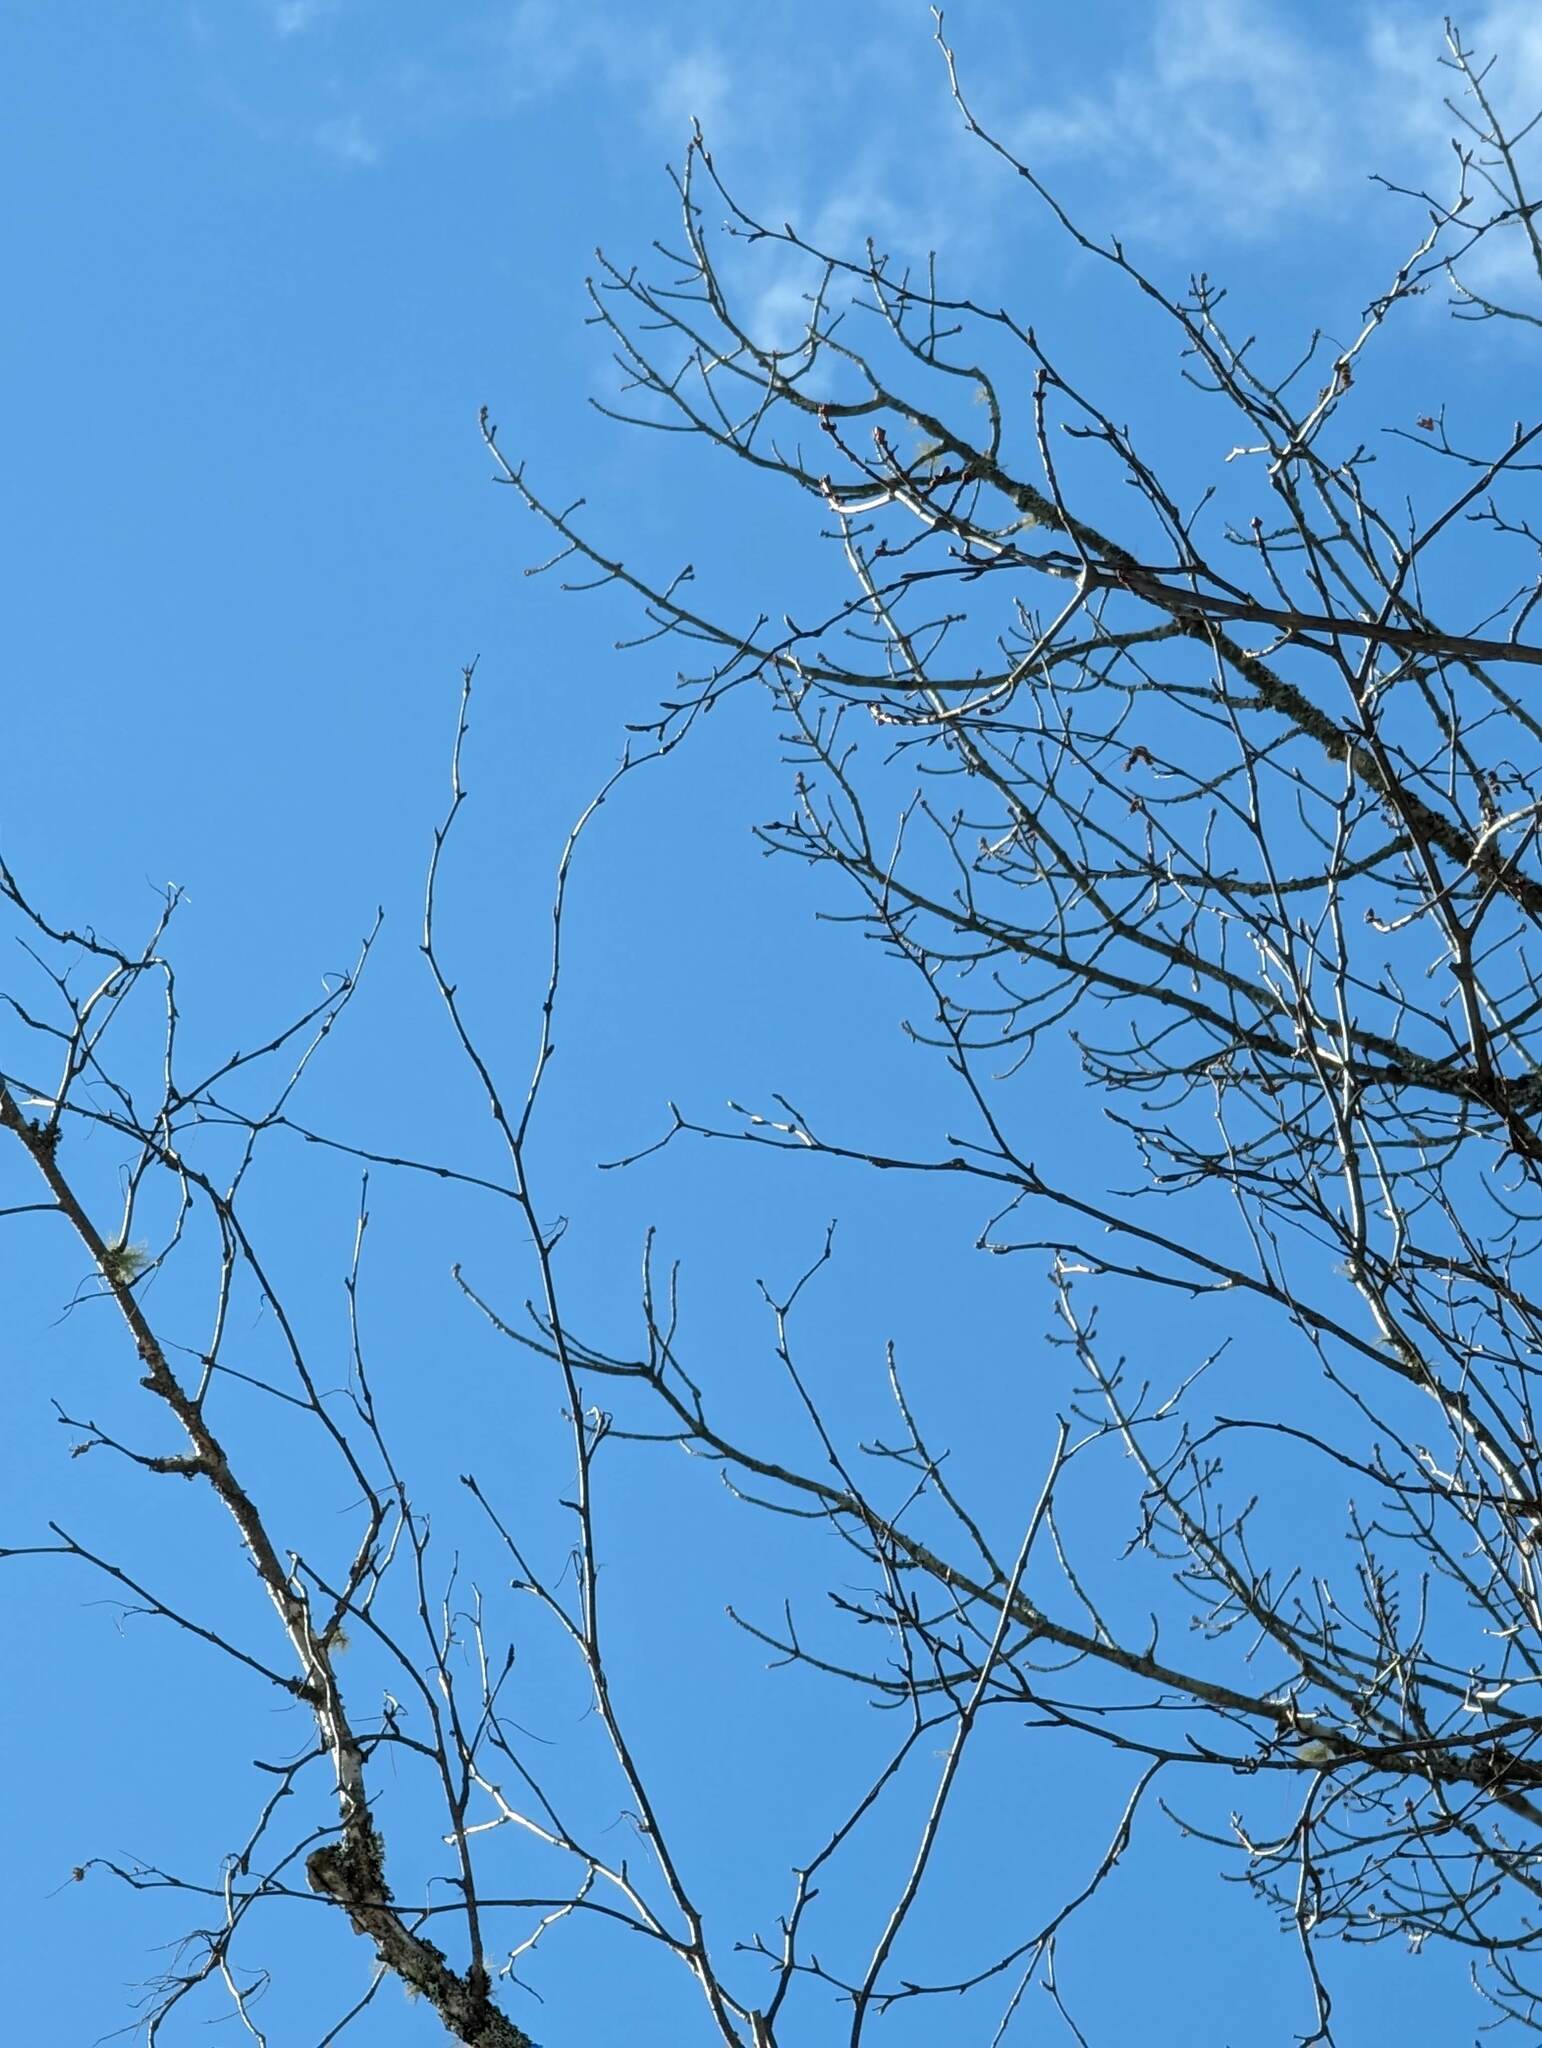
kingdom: Plantae
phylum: Tracheophyta
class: Magnoliopsida
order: Fagales
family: Betulaceae
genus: Betula
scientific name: Betula papyrifera
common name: Paper birch
